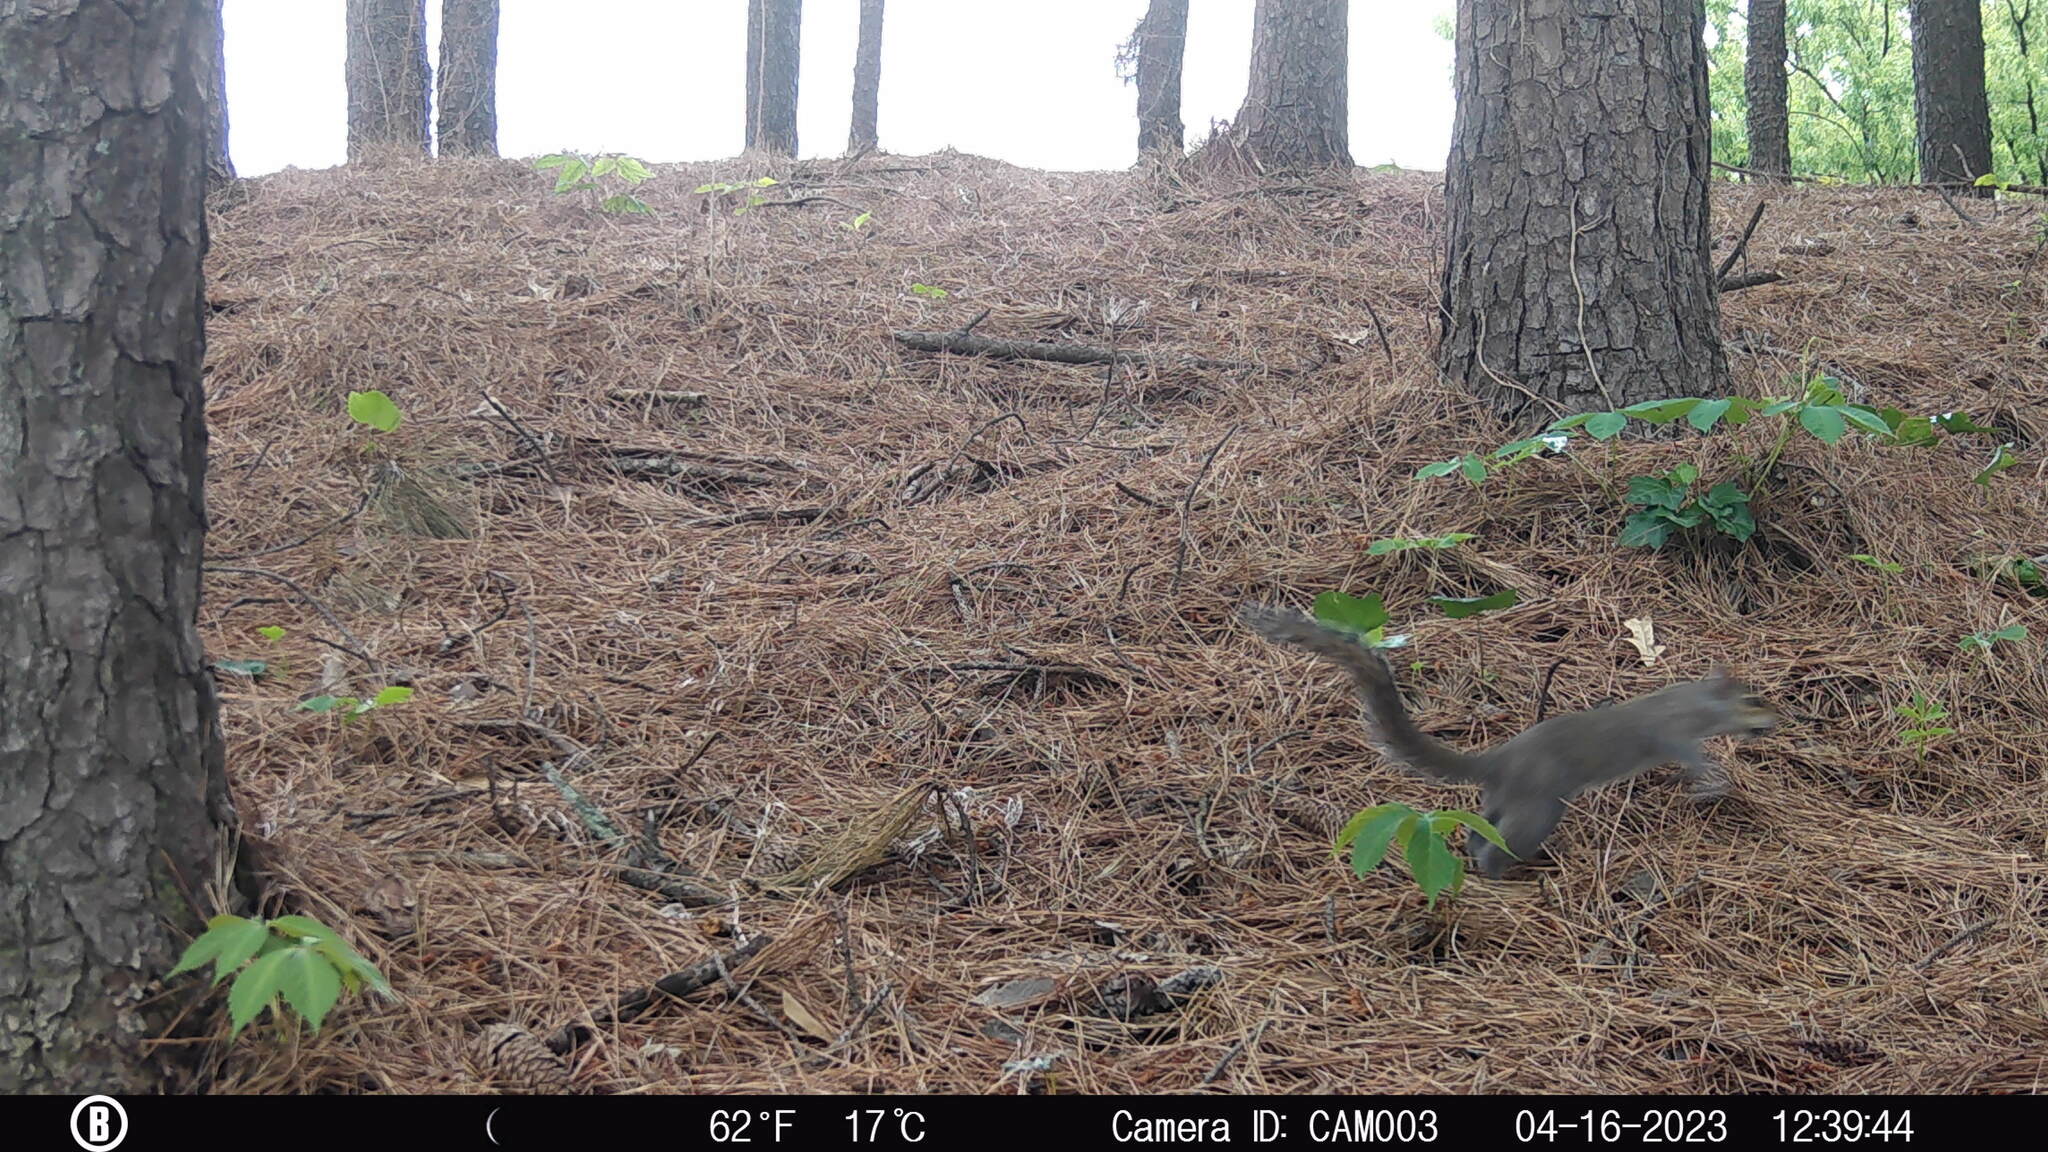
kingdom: Animalia
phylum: Chordata
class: Mammalia
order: Rodentia
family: Sciuridae
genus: Sciurus
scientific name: Sciurus carolinensis
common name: Eastern gray squirrel
